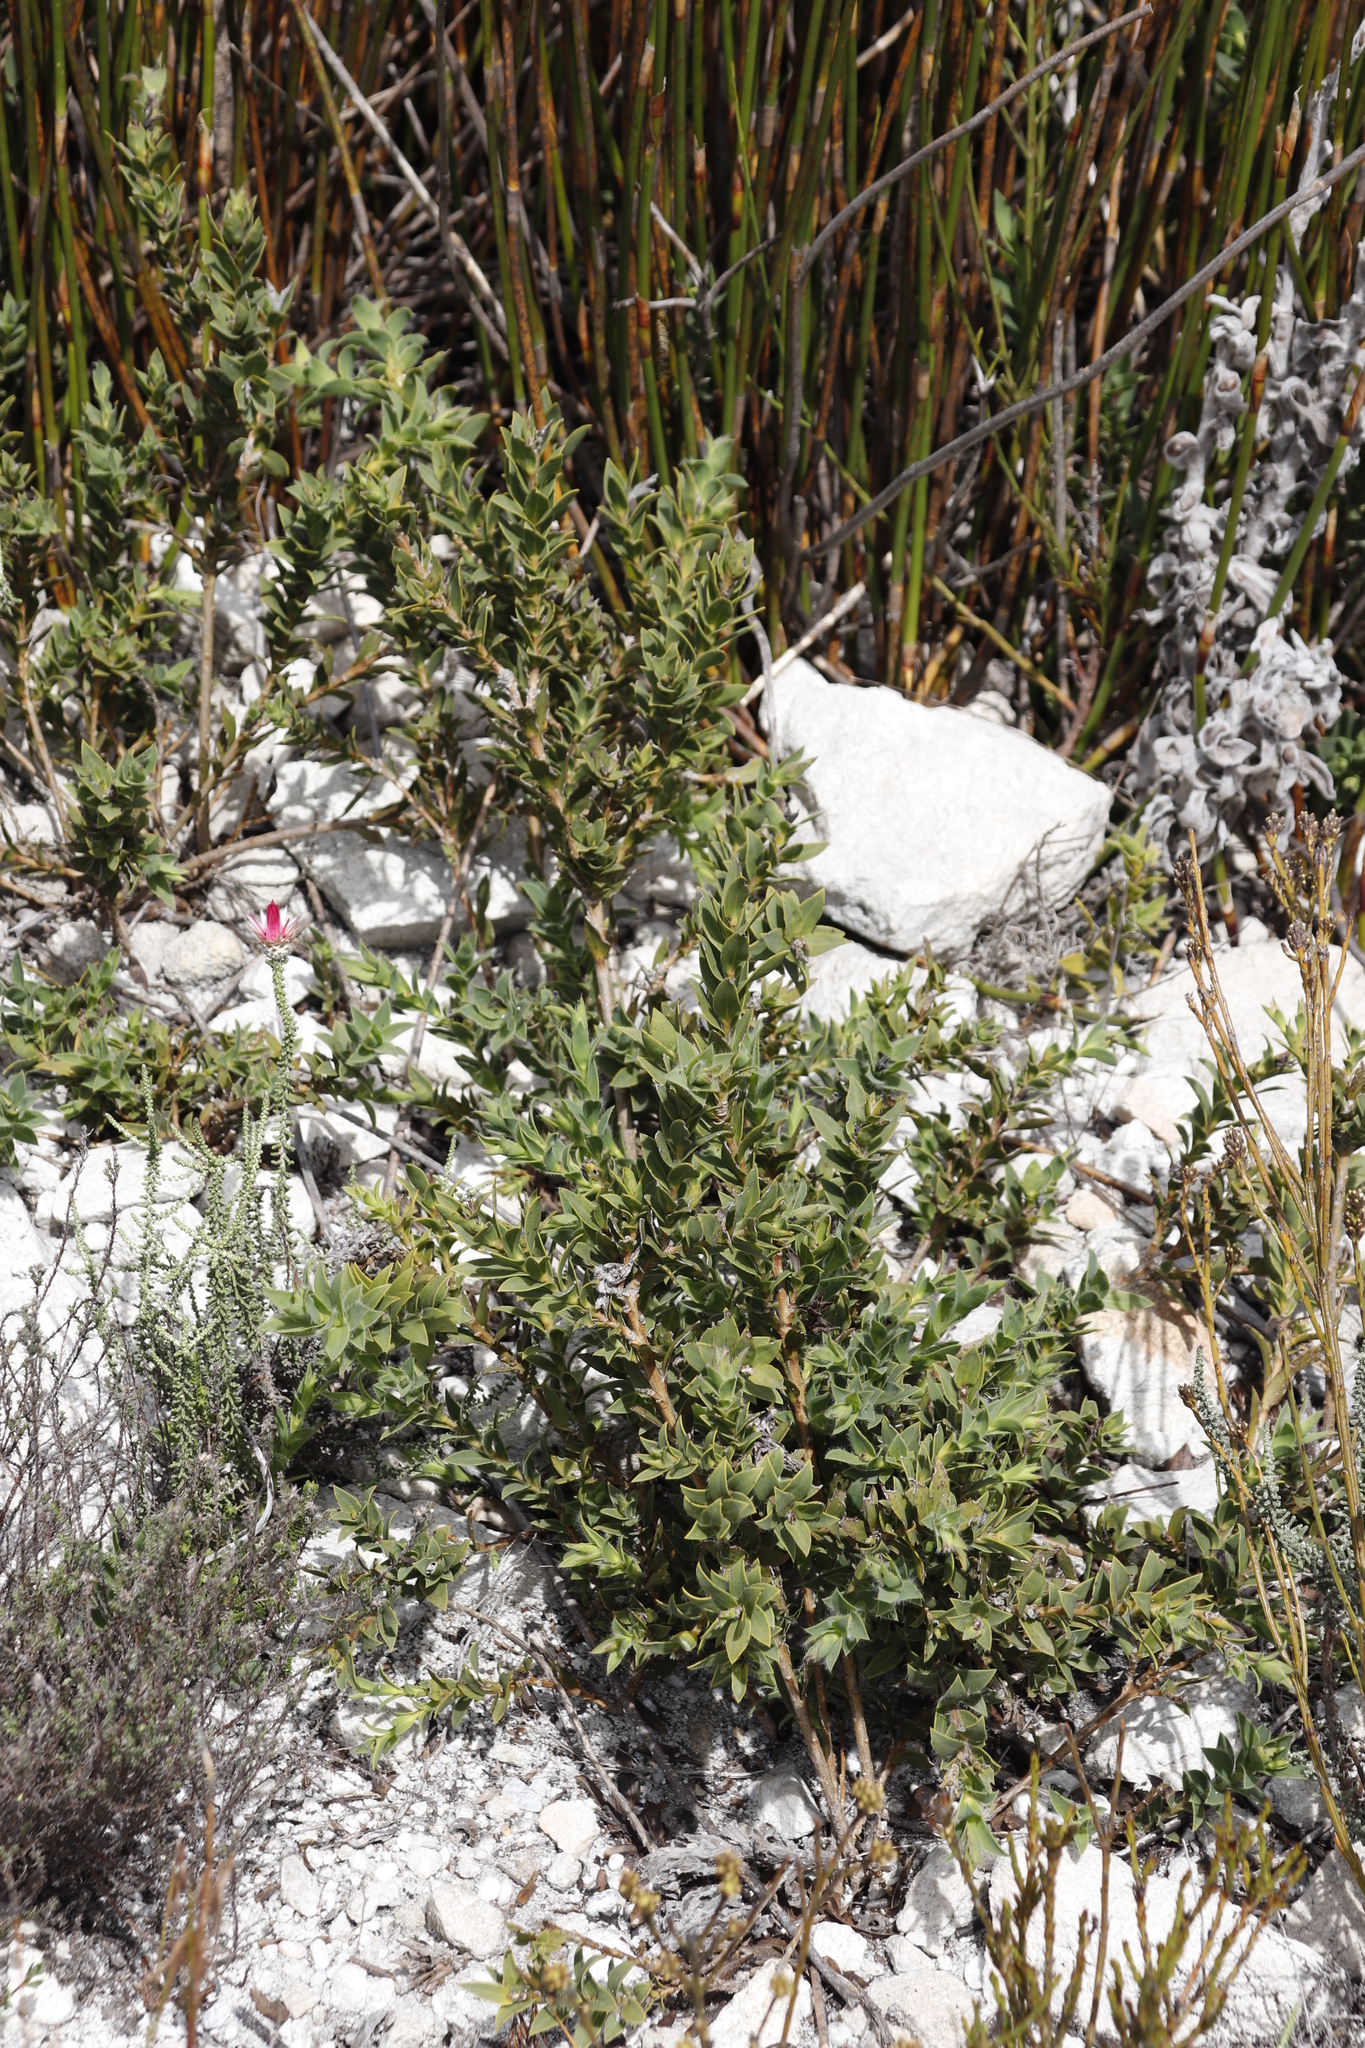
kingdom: Plantae
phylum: Tracheophyta
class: Magnoliopsida
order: Fabales
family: Fabaceae
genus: Liparia
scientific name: Liparia splendens
